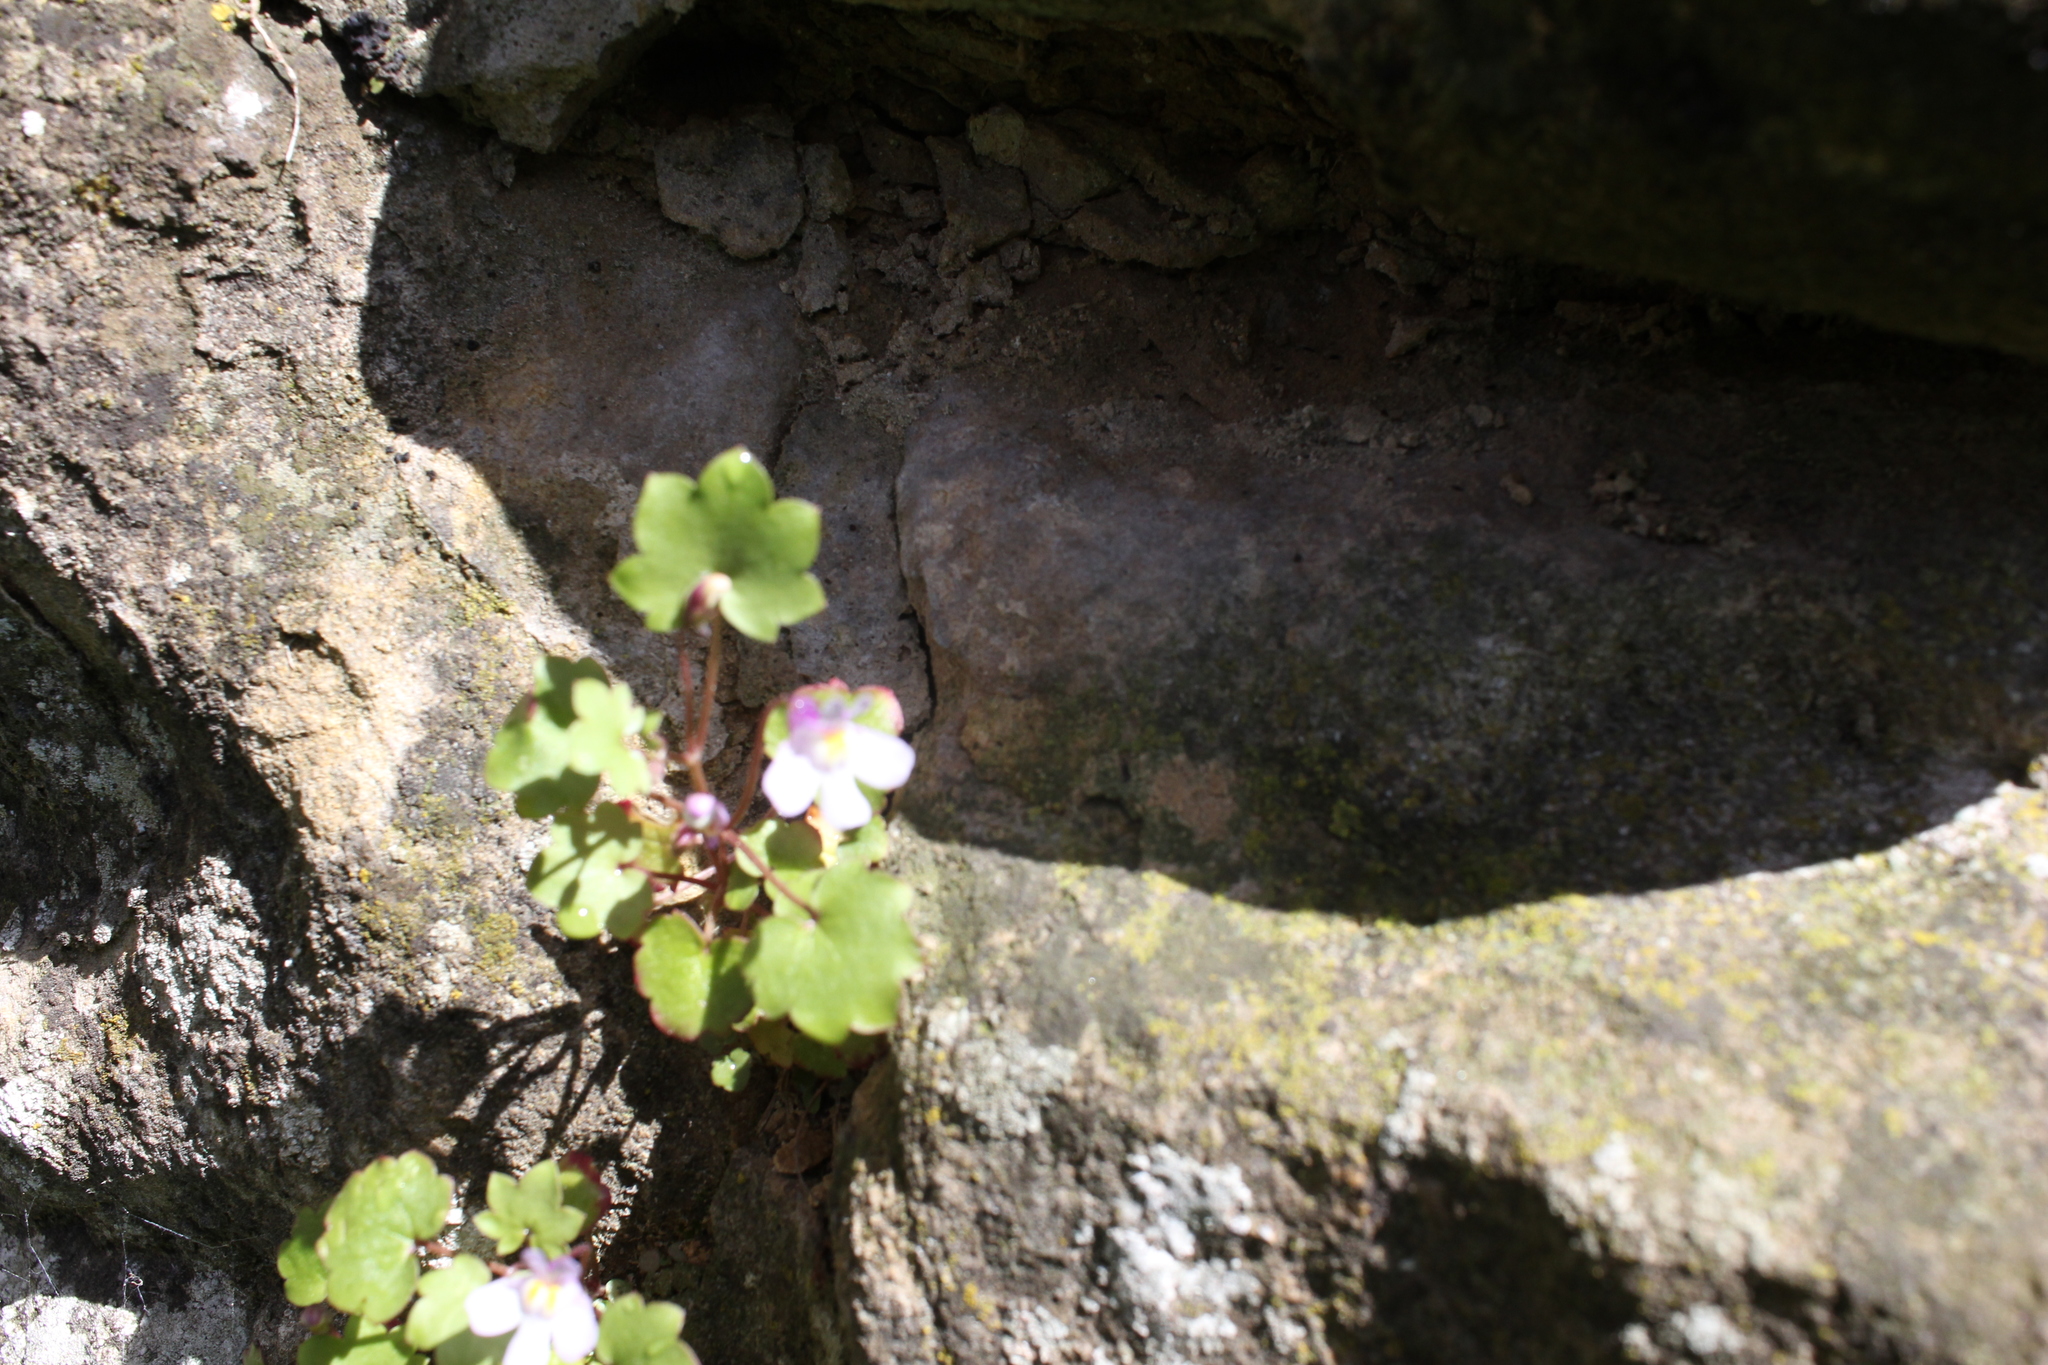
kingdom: Plantae
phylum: Tracheophyta
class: Magnoliopsida
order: Lamiales
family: Plantaginaceae
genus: Cymbalaria
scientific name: Cymbalaria muralis
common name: Ivy-leaved toadflax
